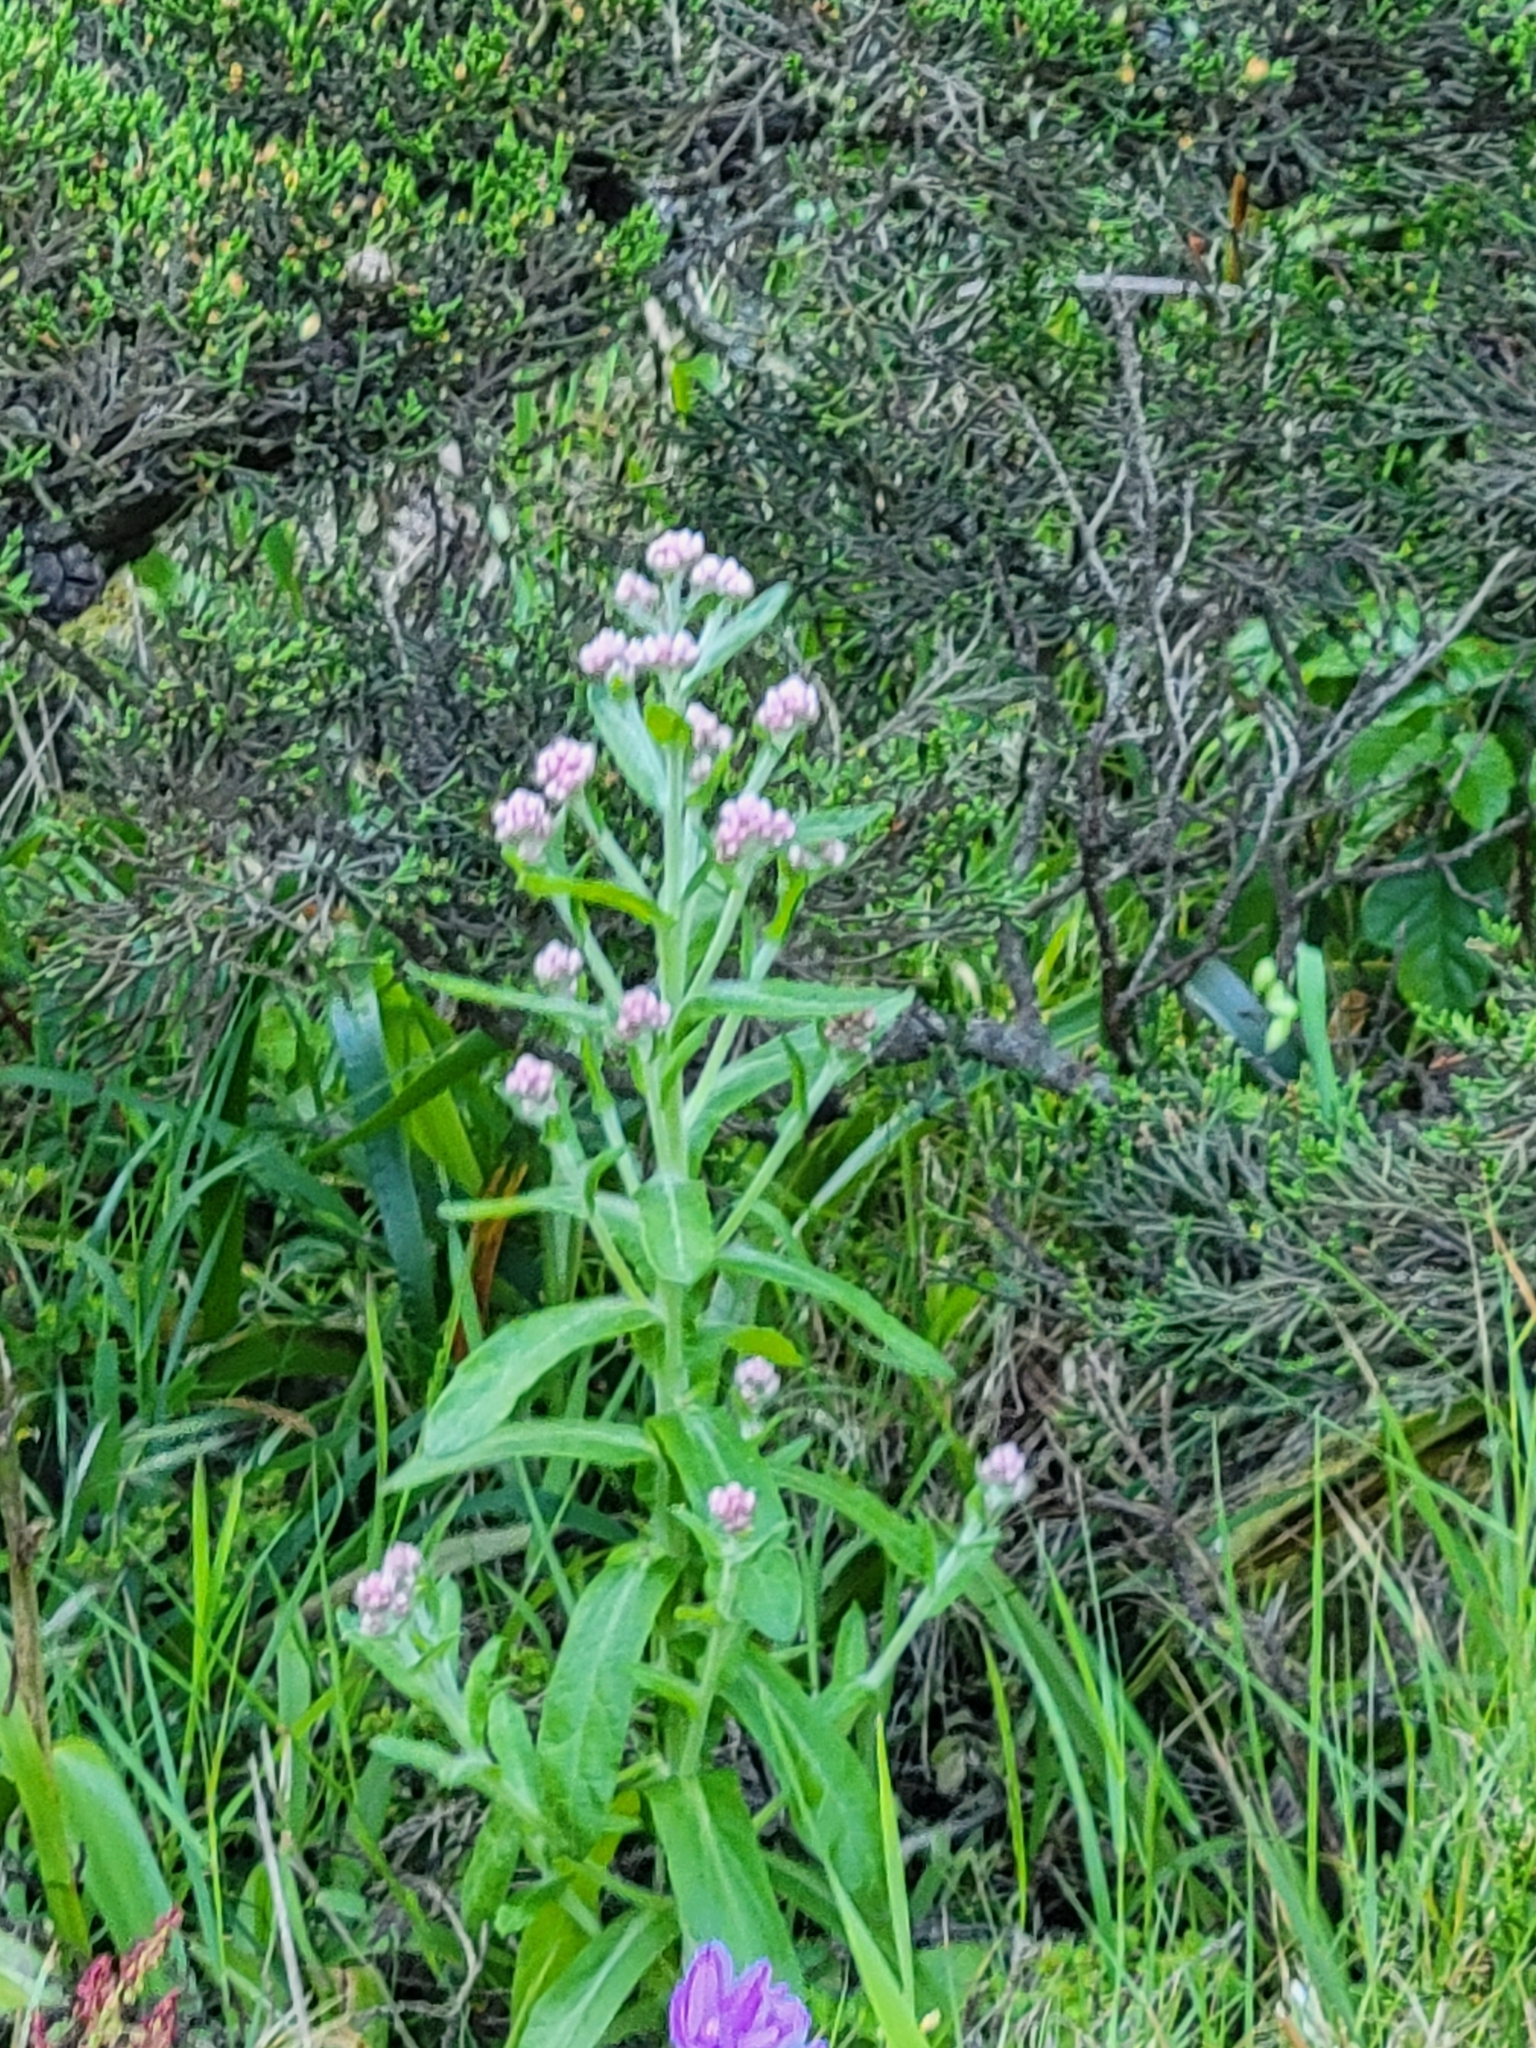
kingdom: Plantae
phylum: Tracheophyta
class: Magnoliopsida
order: Asterales
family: Asteraceae
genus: Pseudognaphalium
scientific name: Pseudognaphalium ramosissimum
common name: Pink rabbit-tobacco
